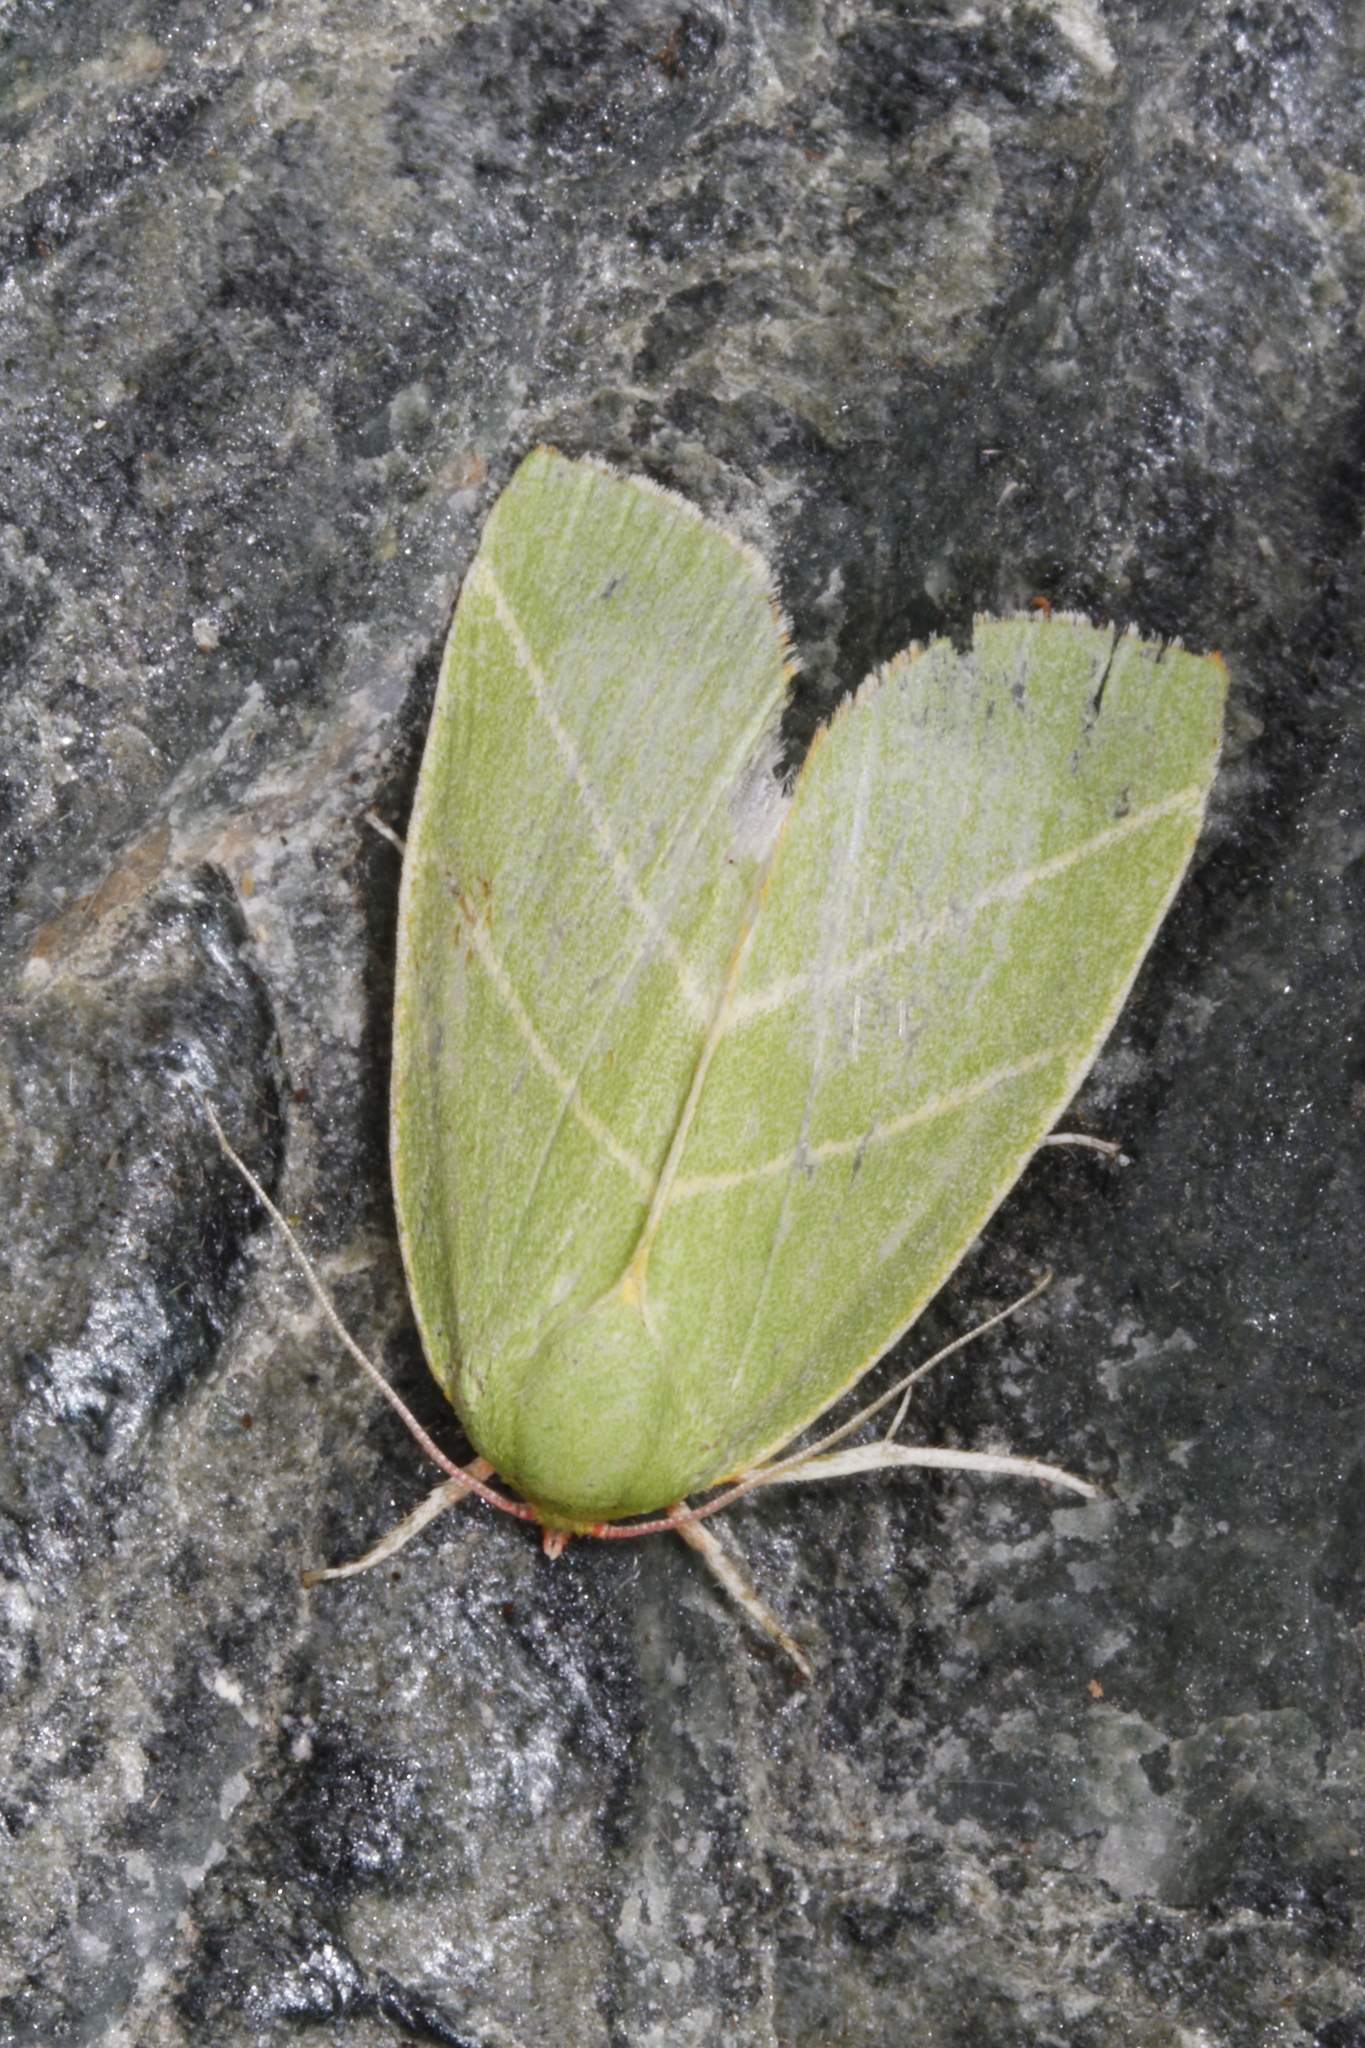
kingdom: Animalia
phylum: Arthropoda
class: Insecta
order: Lepidoptera
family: Nolidae
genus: Bena
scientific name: Bena bicolorana
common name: Scarce silver-lines
